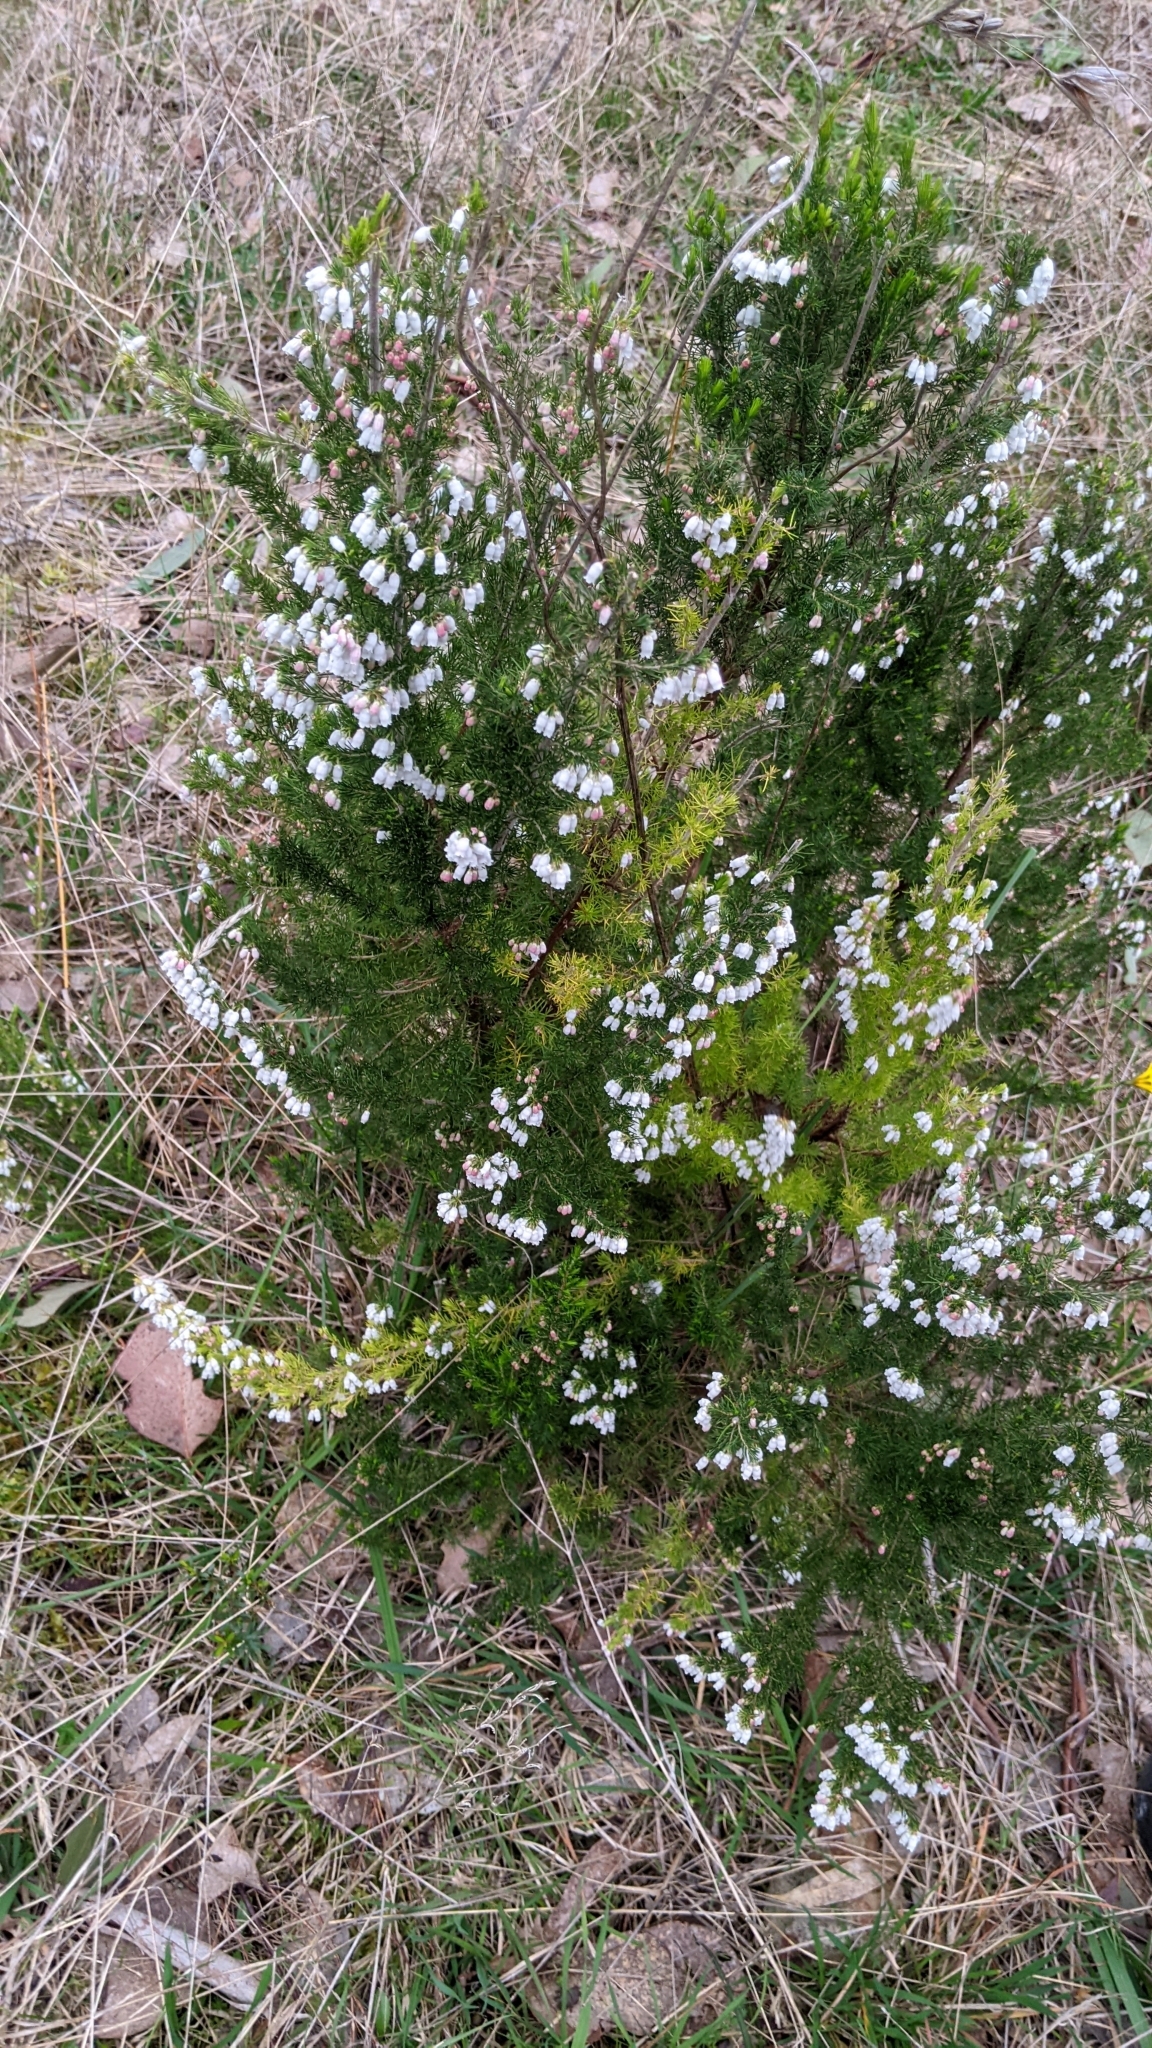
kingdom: Plantae
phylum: Tracheophyta
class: Magnoliopsida
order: Ericales
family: Ericaceae
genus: Erica
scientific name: Erica lusitanica
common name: Spanish heath
